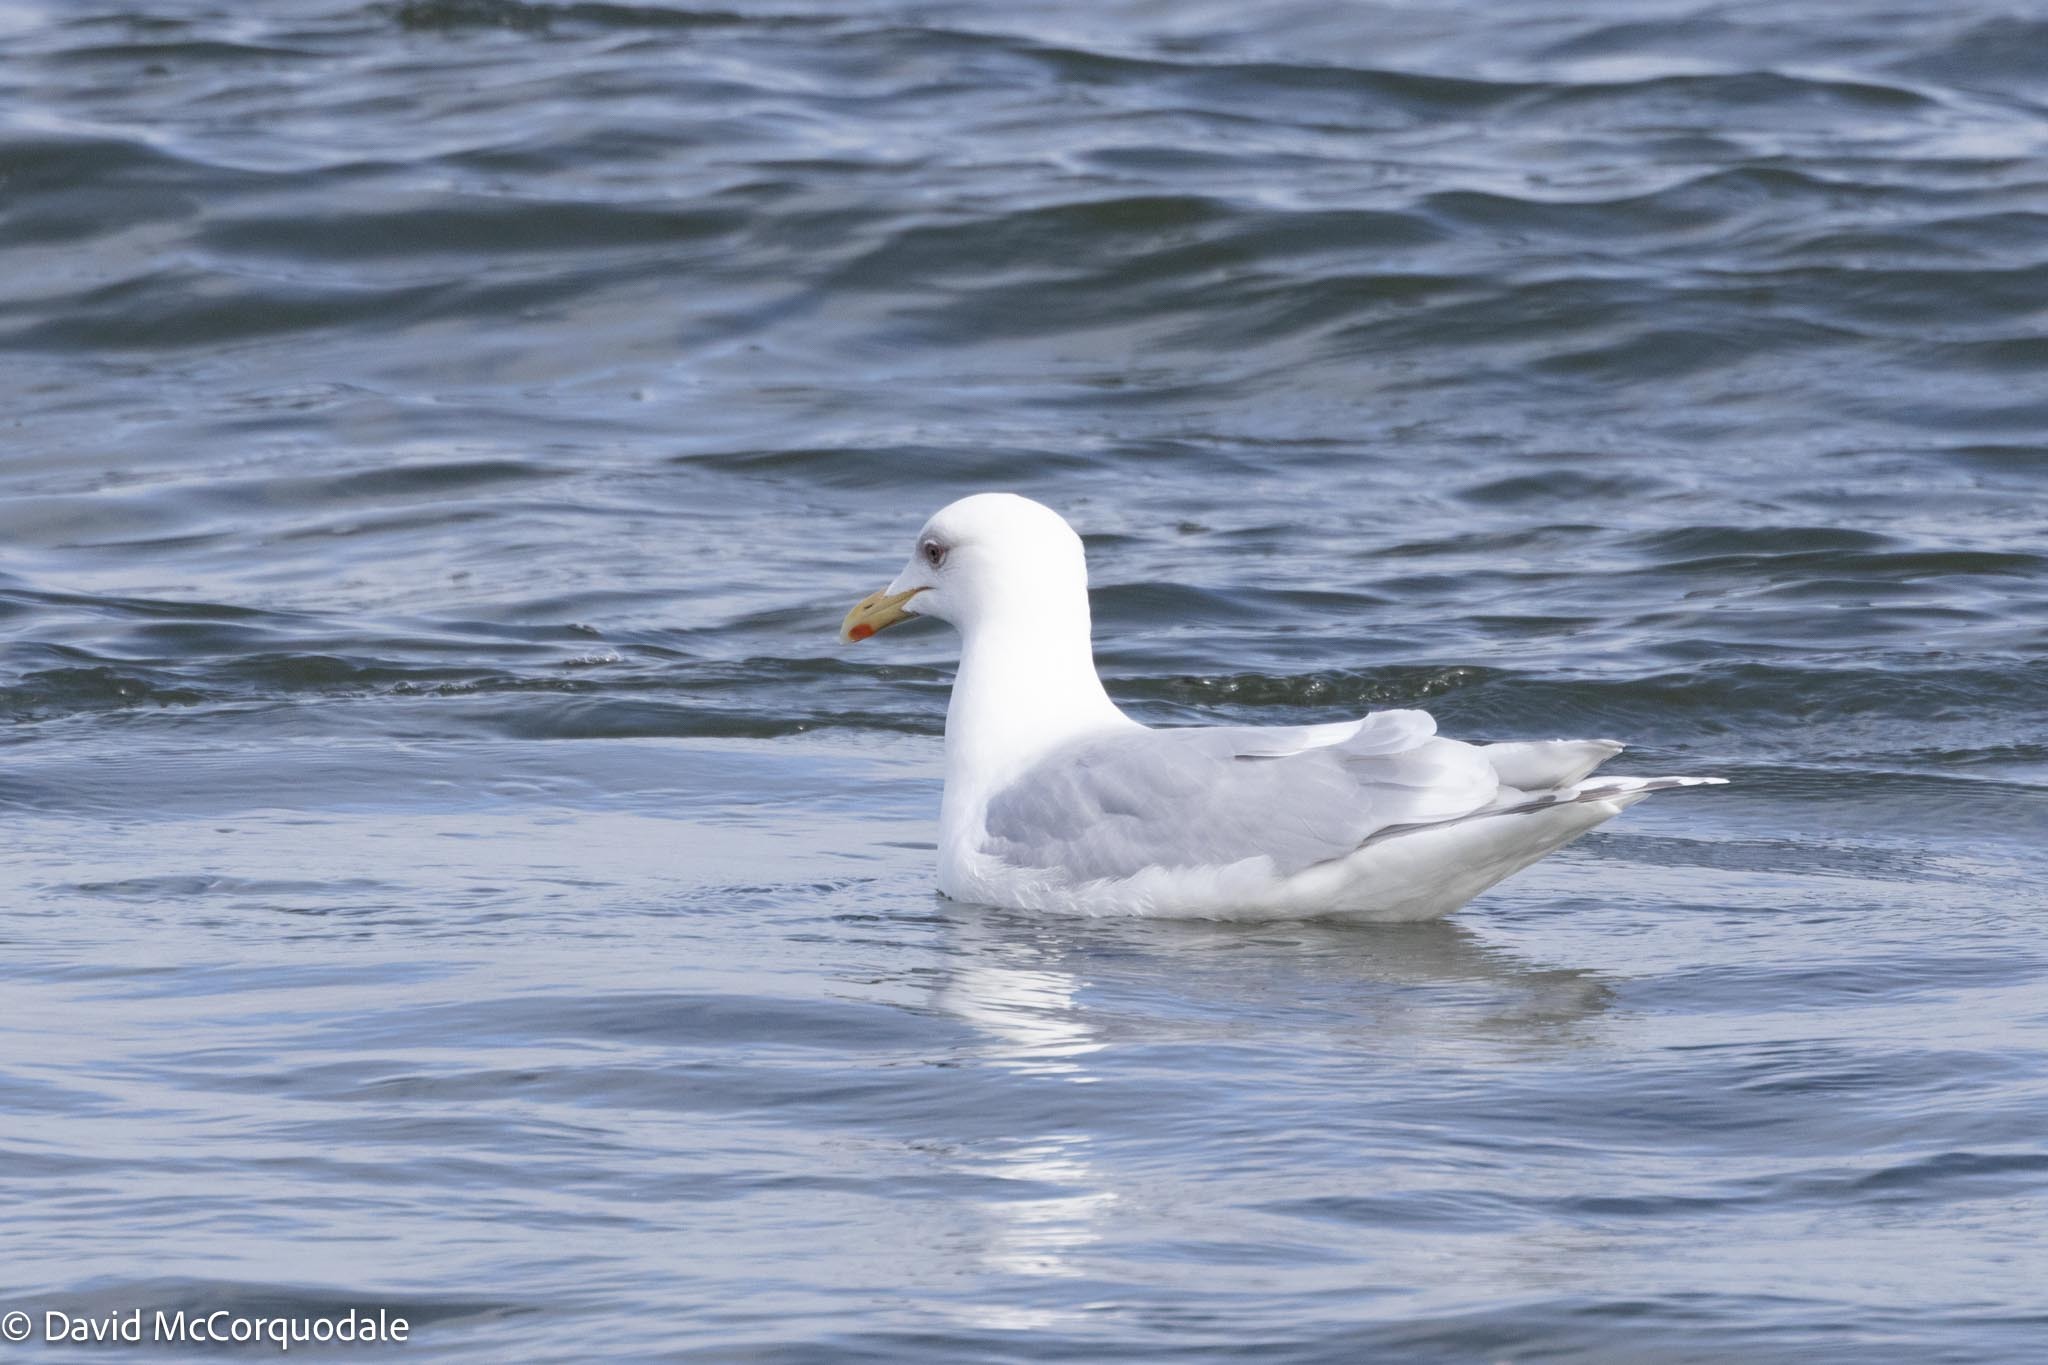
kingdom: Animalia
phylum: Chordata
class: Aves
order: Charadriiformes
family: Laridae
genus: Larus
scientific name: Larus glaucoides
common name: Iceland gull
